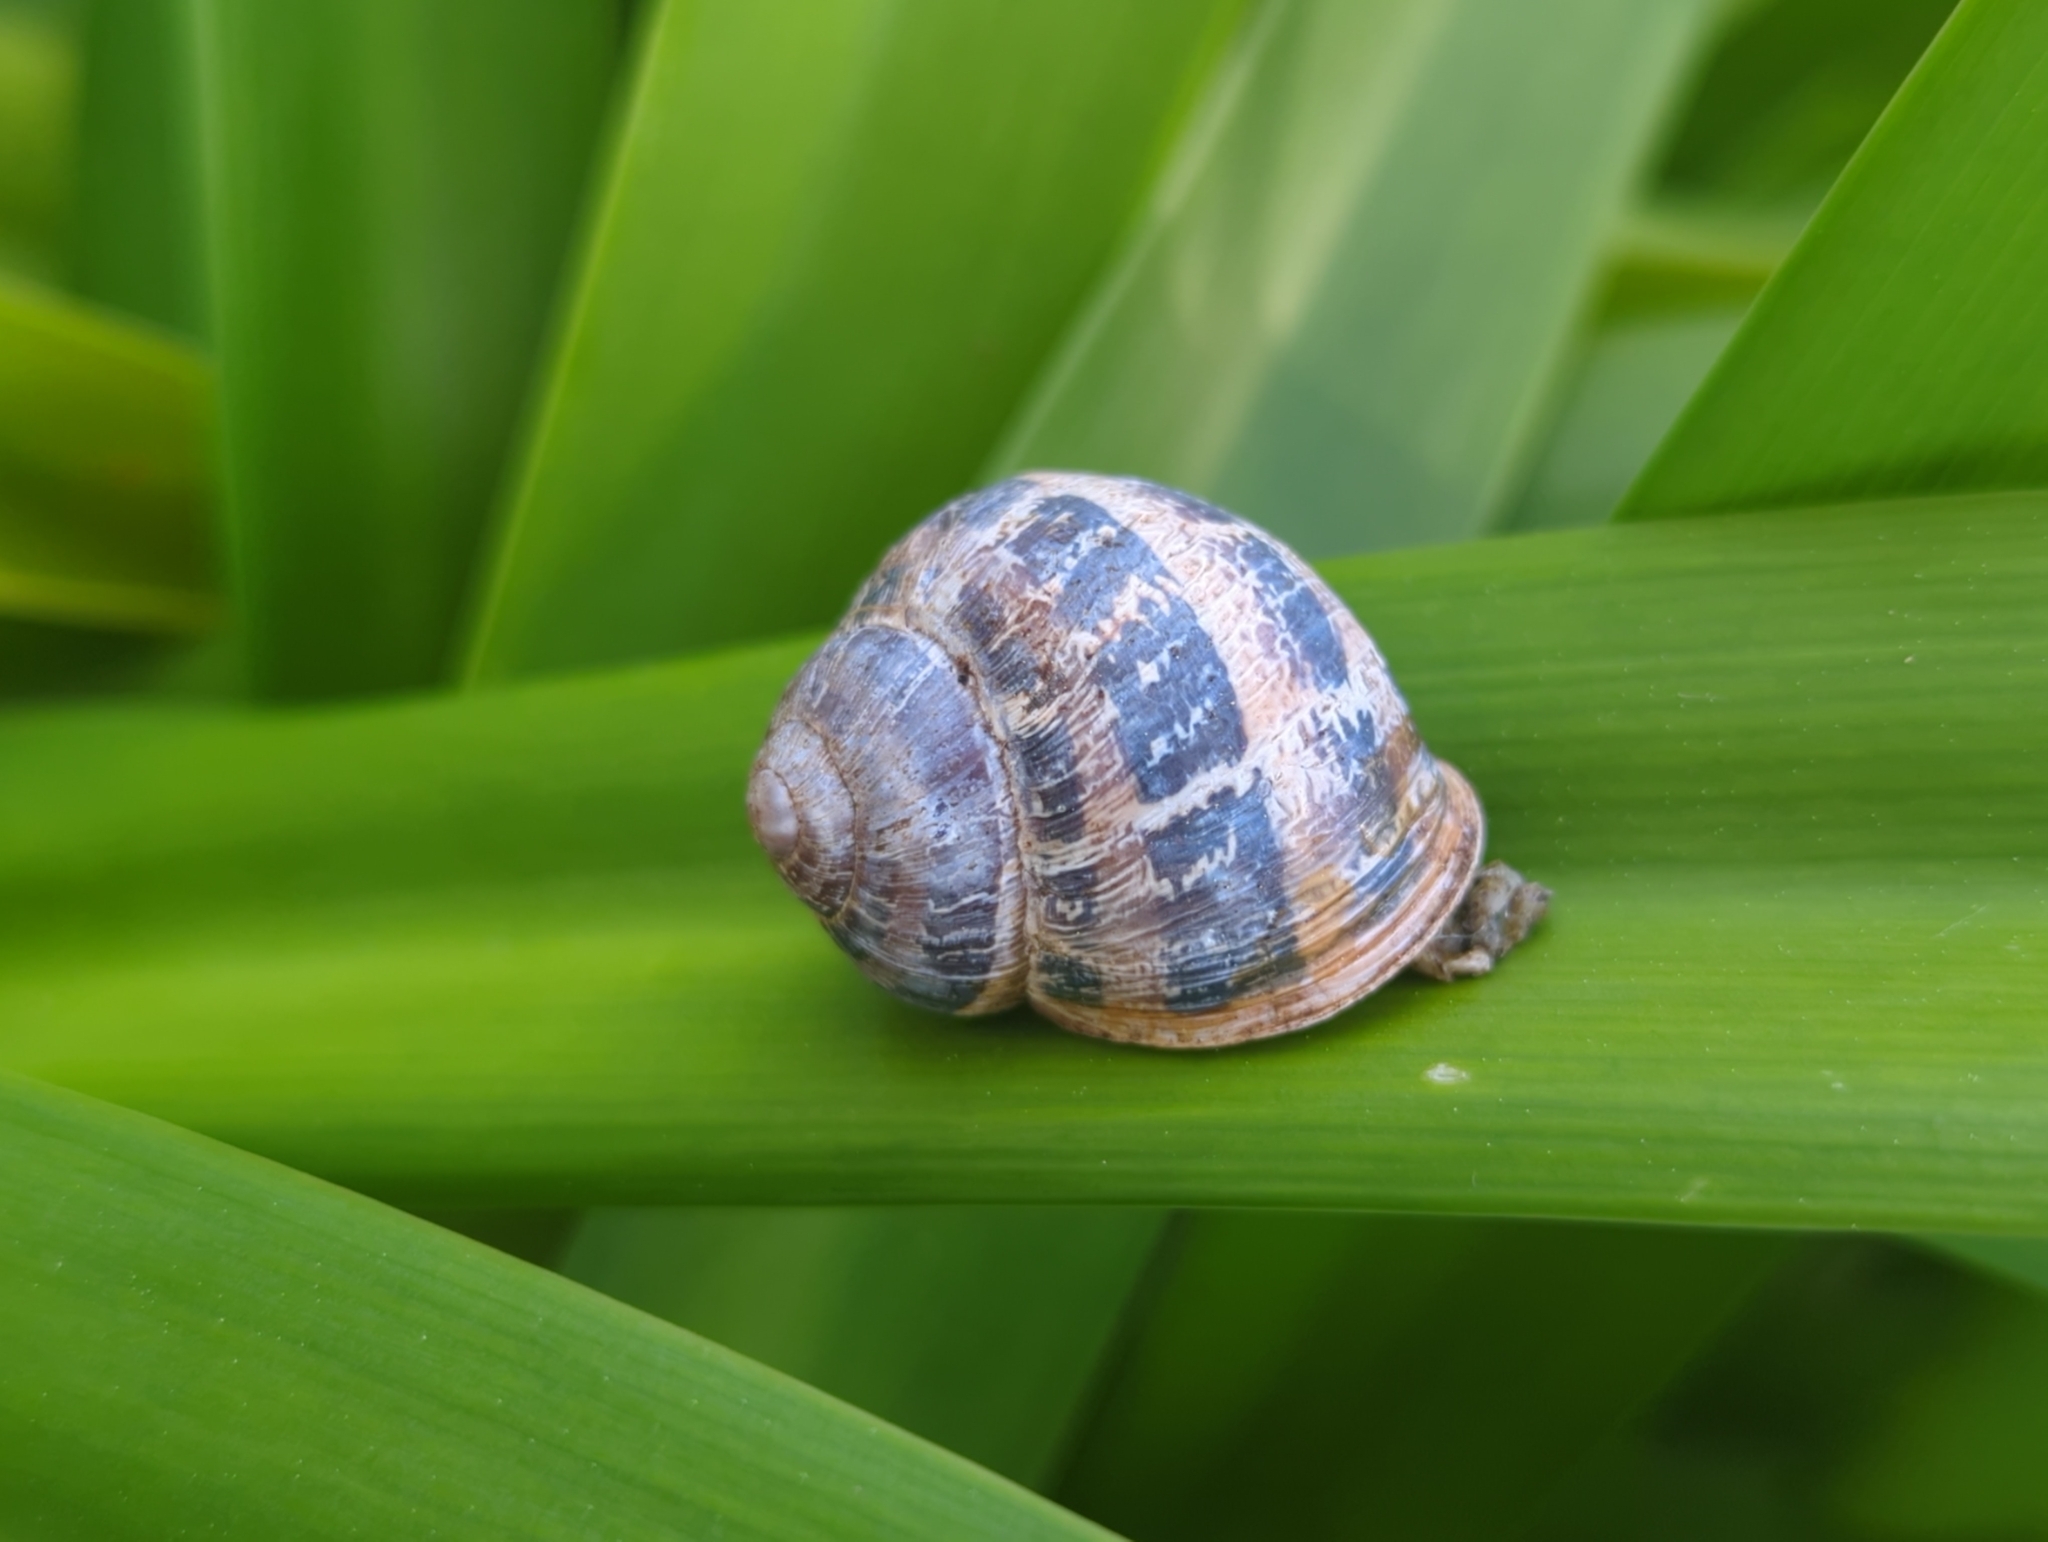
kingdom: Animalia
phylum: Mollusca
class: Gastropoda
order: Stylommatophora
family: Helicidae
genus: Cornu
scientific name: Cornu aspersum
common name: Brown garden snail
